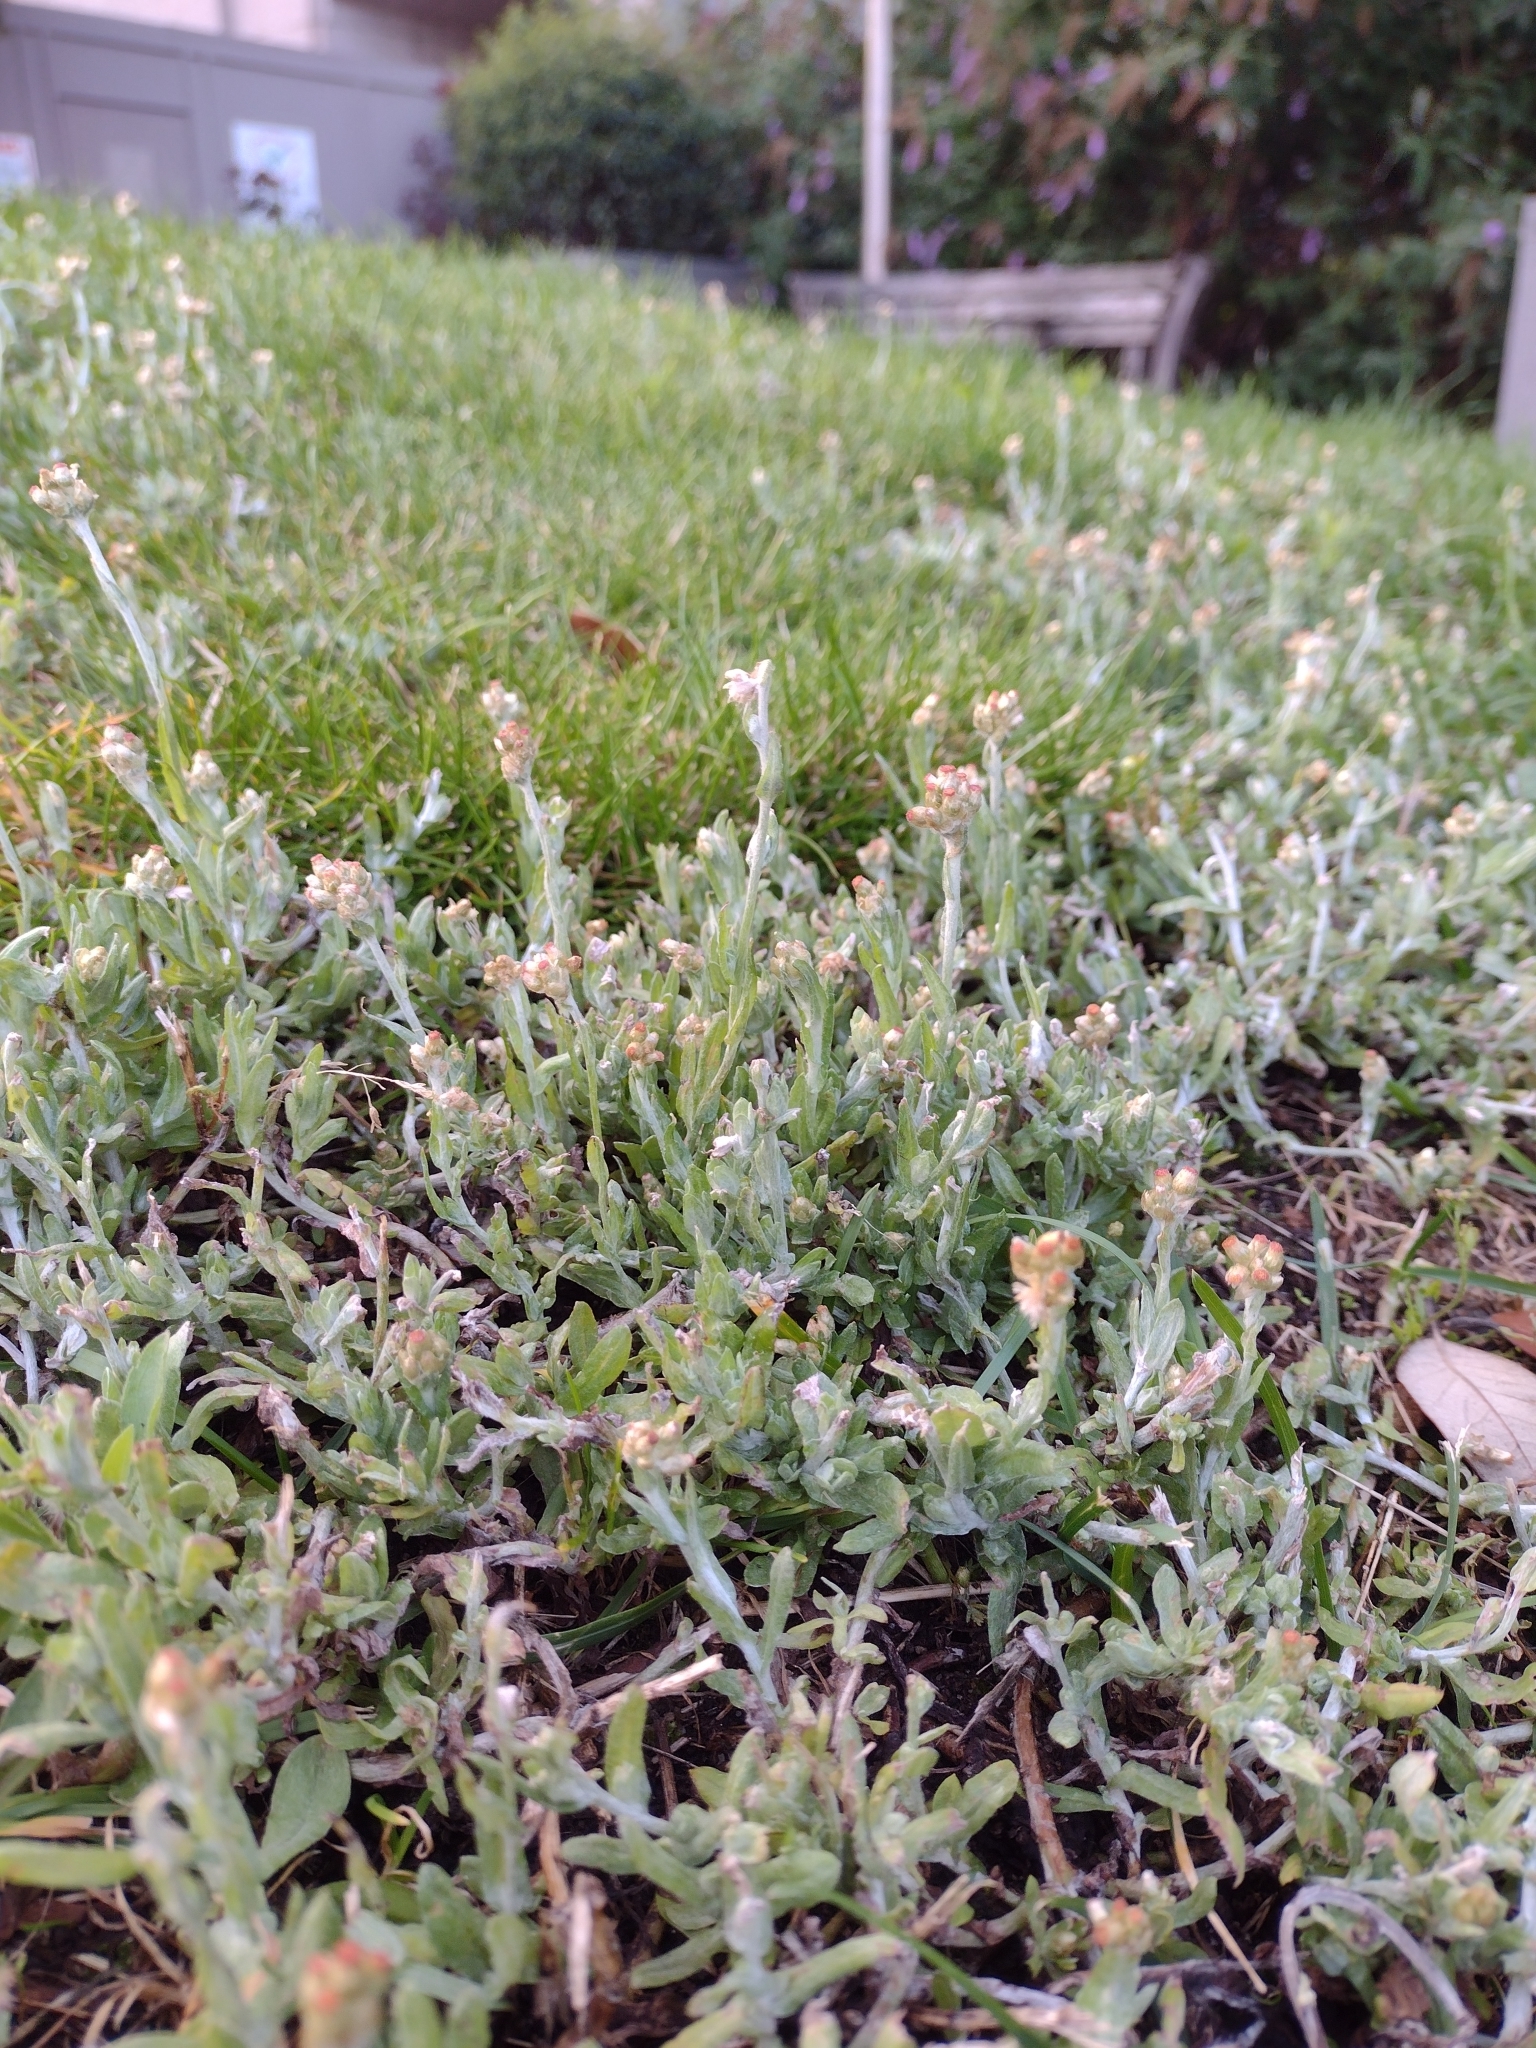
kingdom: Plantae
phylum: Tracheophyta
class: Magnoliopsida
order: Asterales
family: Asteraceae
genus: Helichrysum
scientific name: Helichrysum luteoalbum
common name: Daisy
